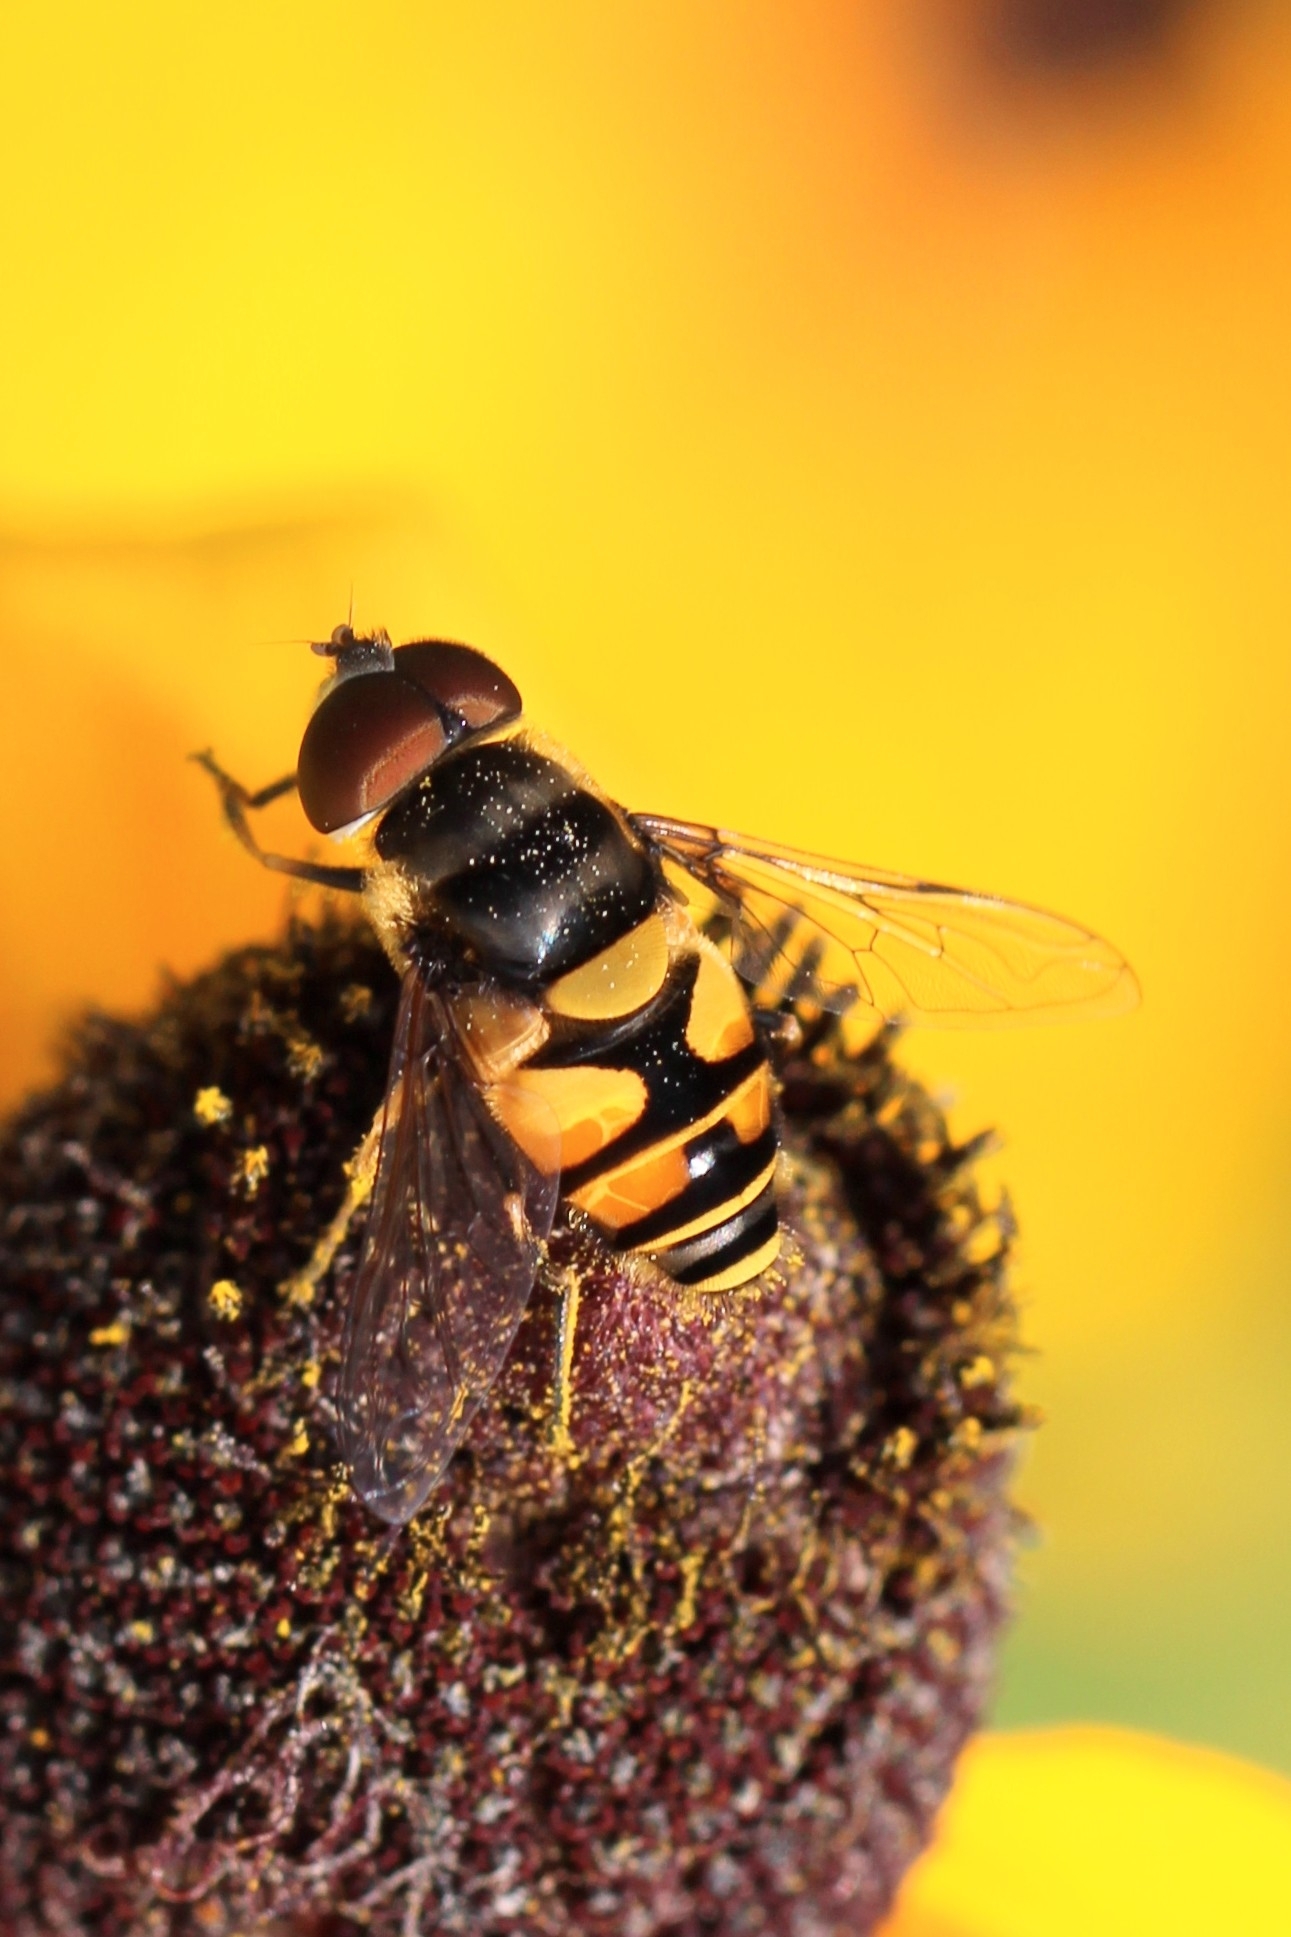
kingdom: Animalia
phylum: Arthropoda
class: Insecta
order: Diptera
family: Syrphidae
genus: Eristalis
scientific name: Eristalis transversa
